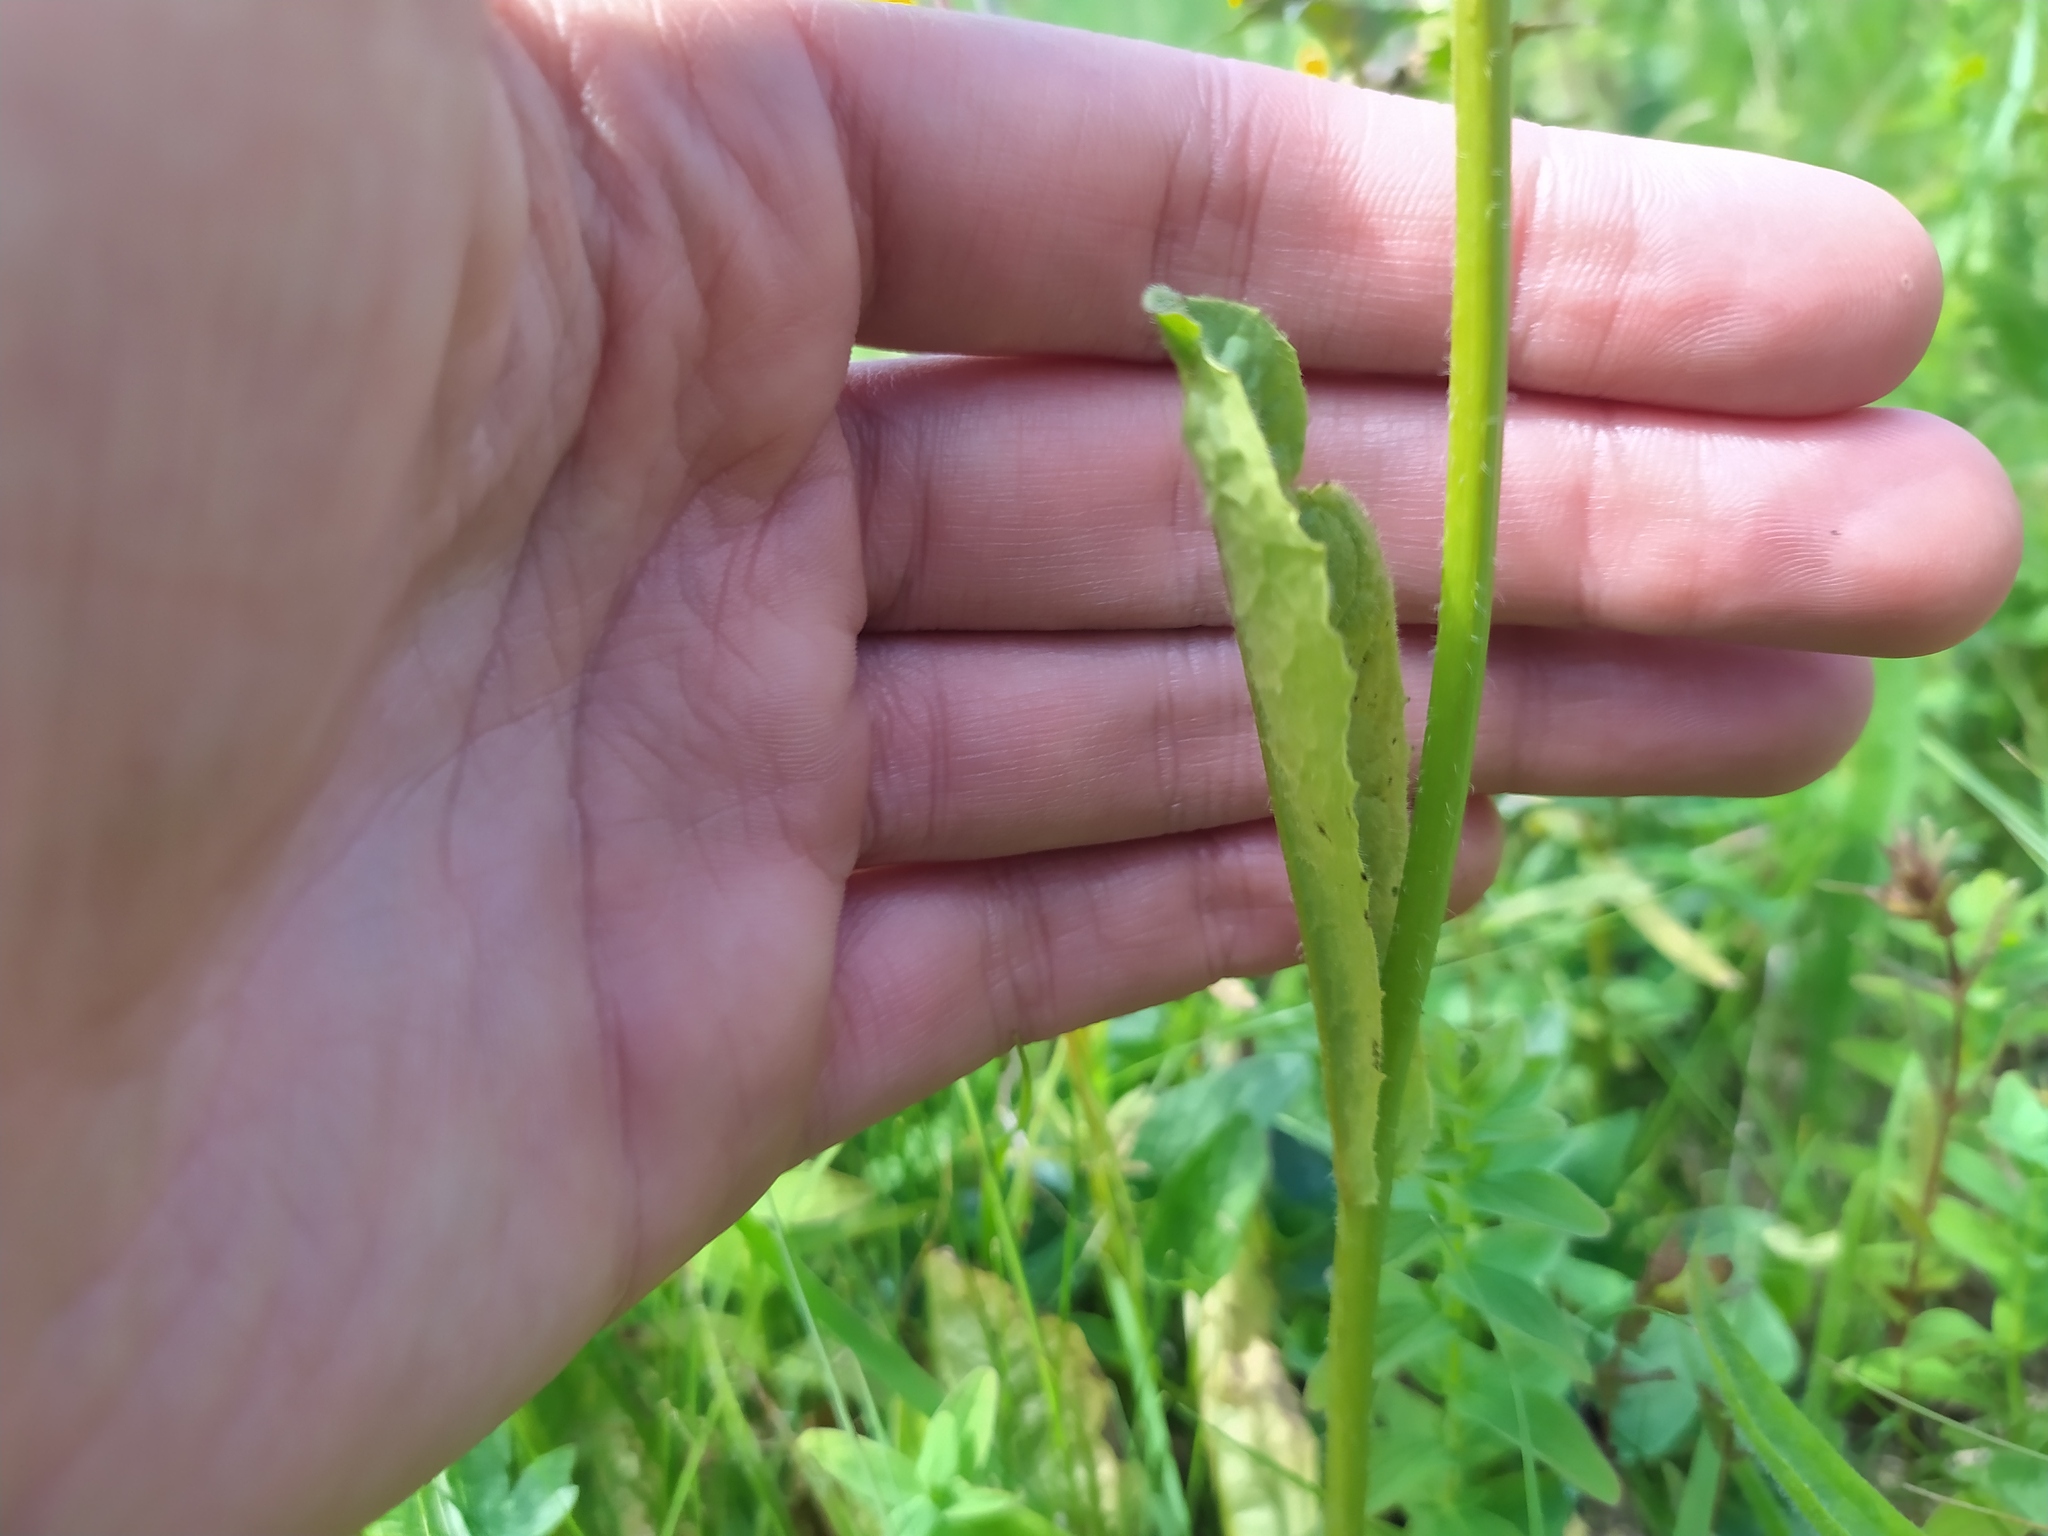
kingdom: Plantae
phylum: Tracheophyta
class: Magnoliopsida
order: Asterales
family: Asteraceae
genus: Crepis
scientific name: Crepis mollis
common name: Northern hawk's-beard
